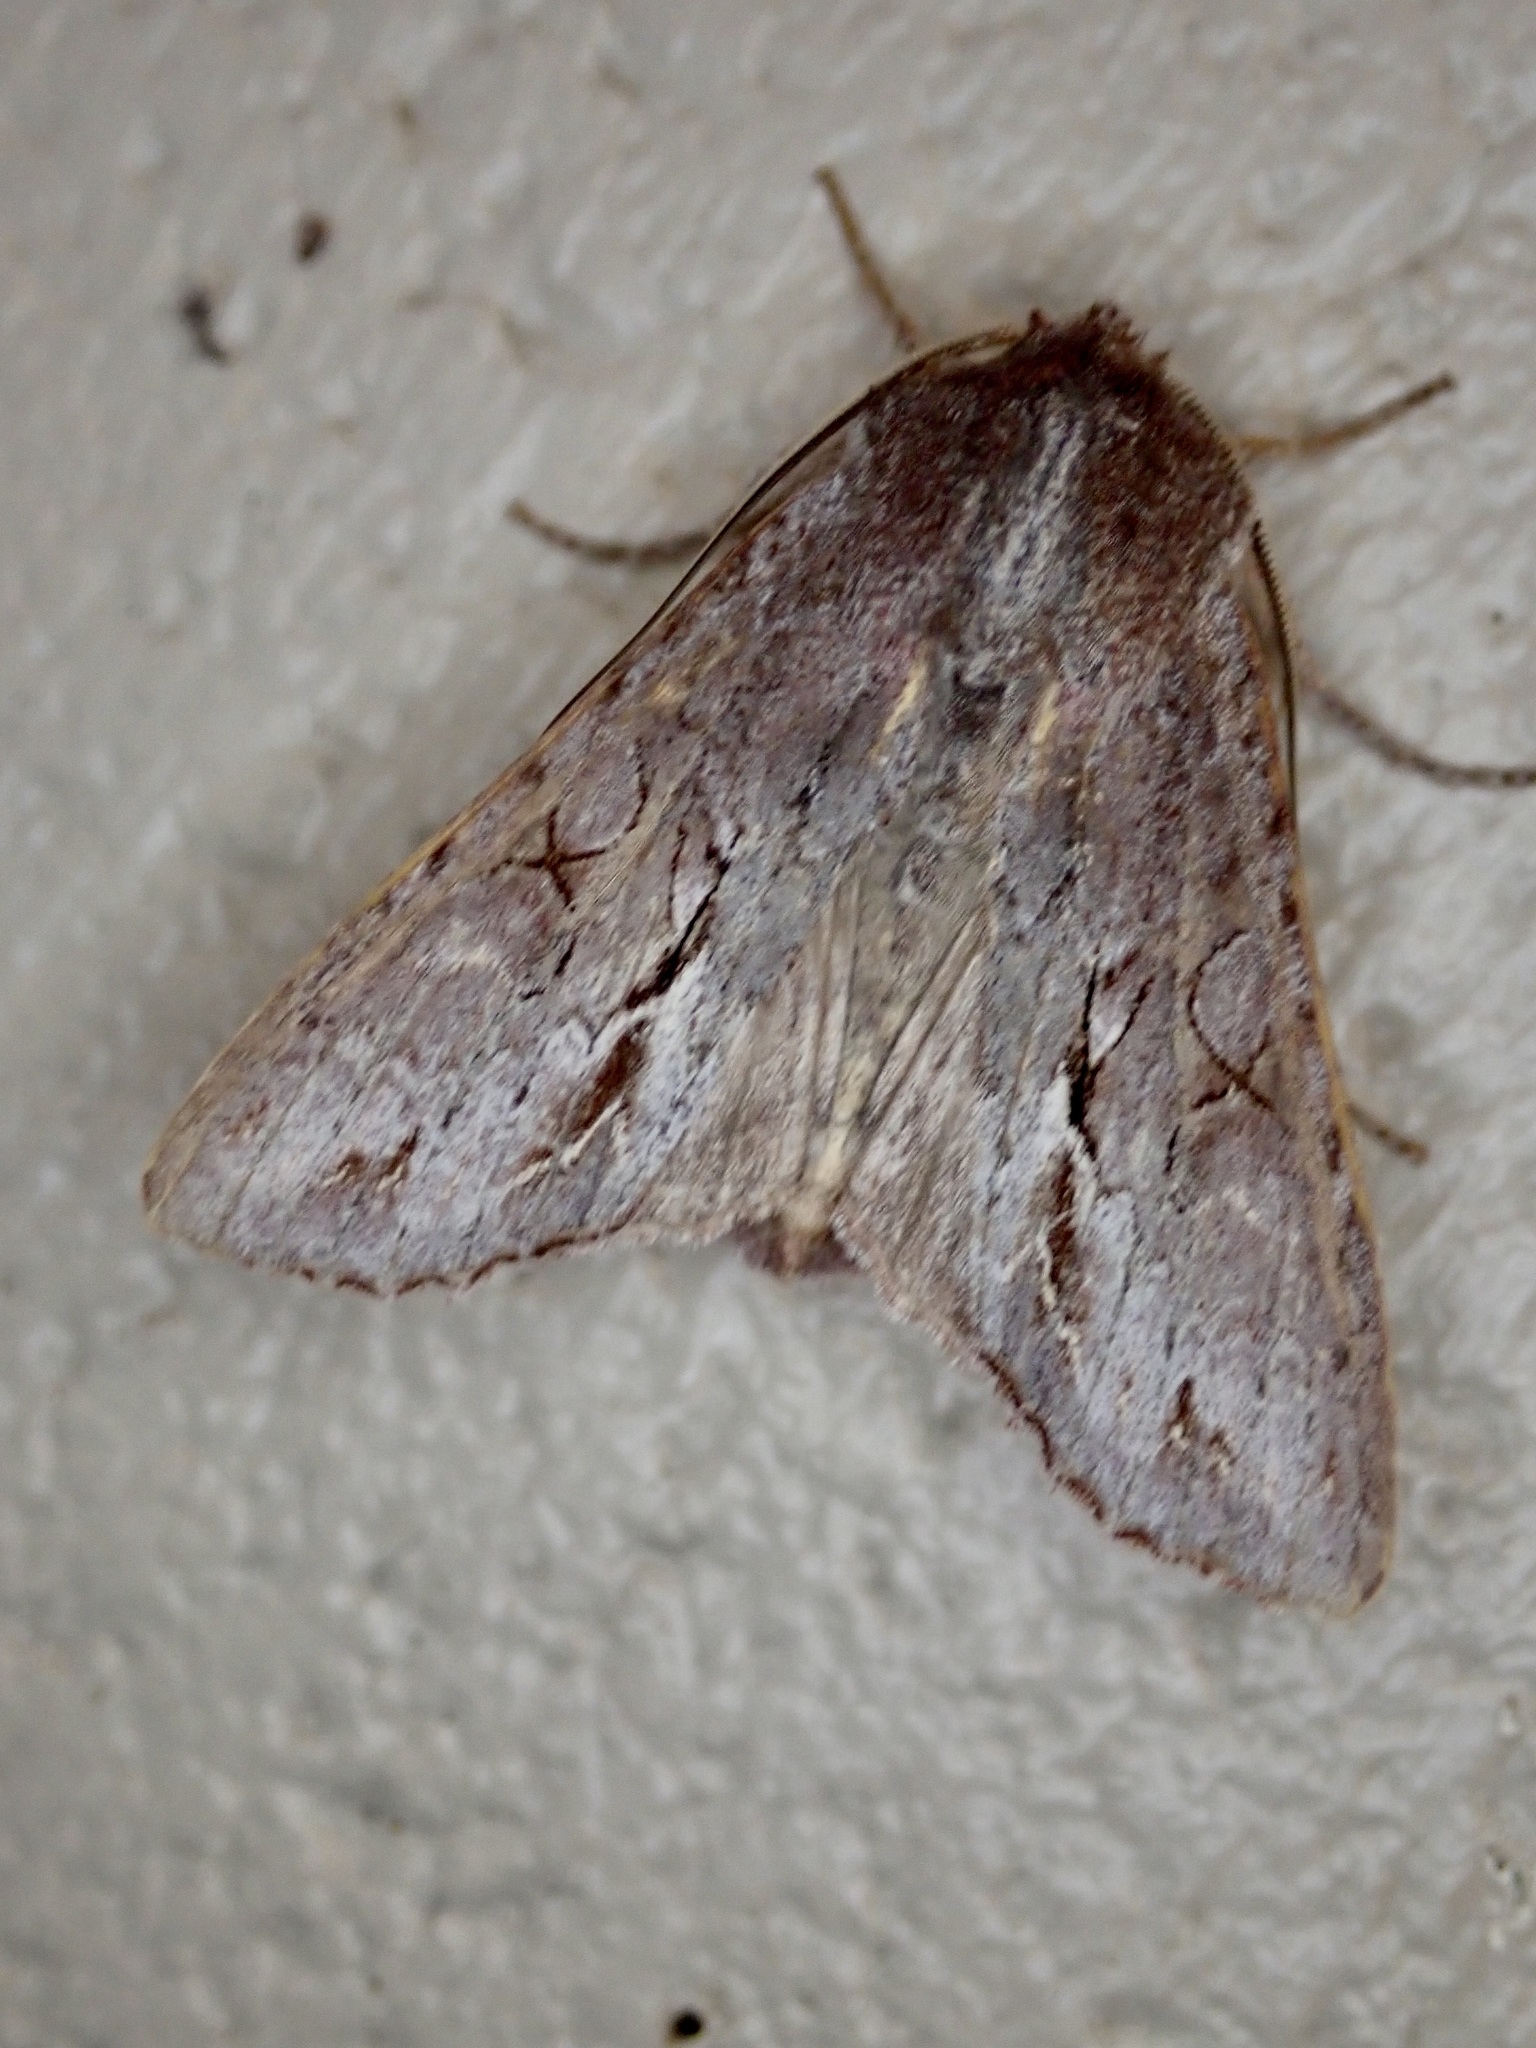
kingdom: Animalia
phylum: Arthropoda
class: Insecta
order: Lepidoptera
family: Noctuidae
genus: Ichneutica
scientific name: Ichneutica
